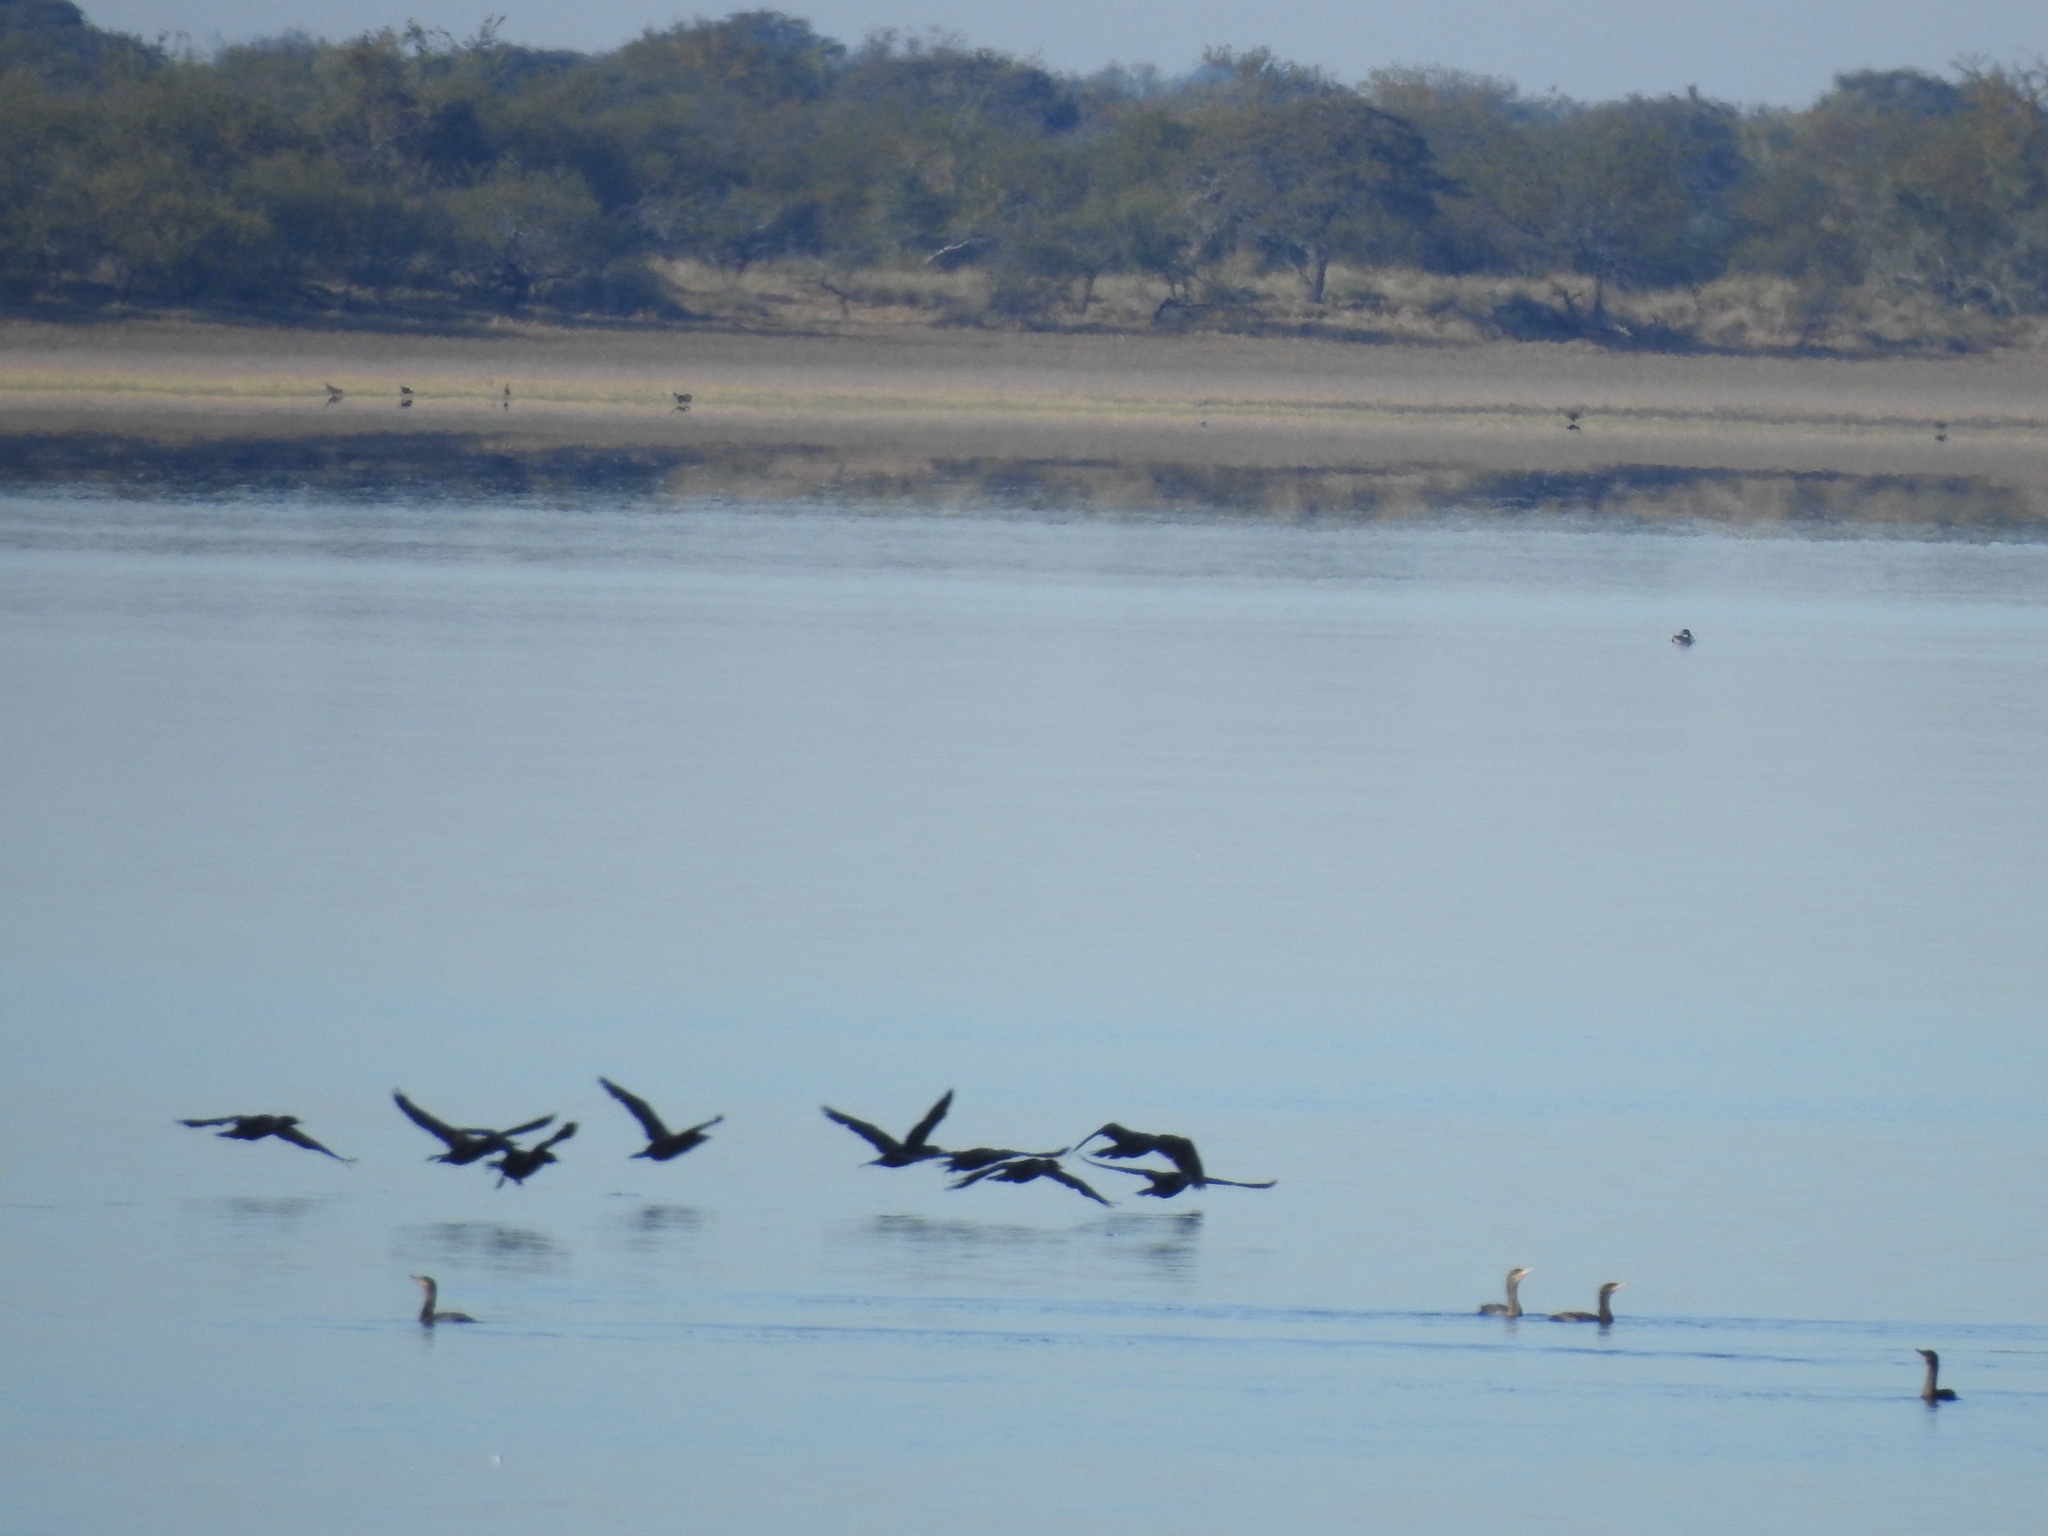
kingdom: Animalia
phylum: Chordata
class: Aves
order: Suliformes
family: Phalacrocoracidae
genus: Phalacrocorax
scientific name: Phalacrocorax brasilianus
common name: Neotropic cormorant
